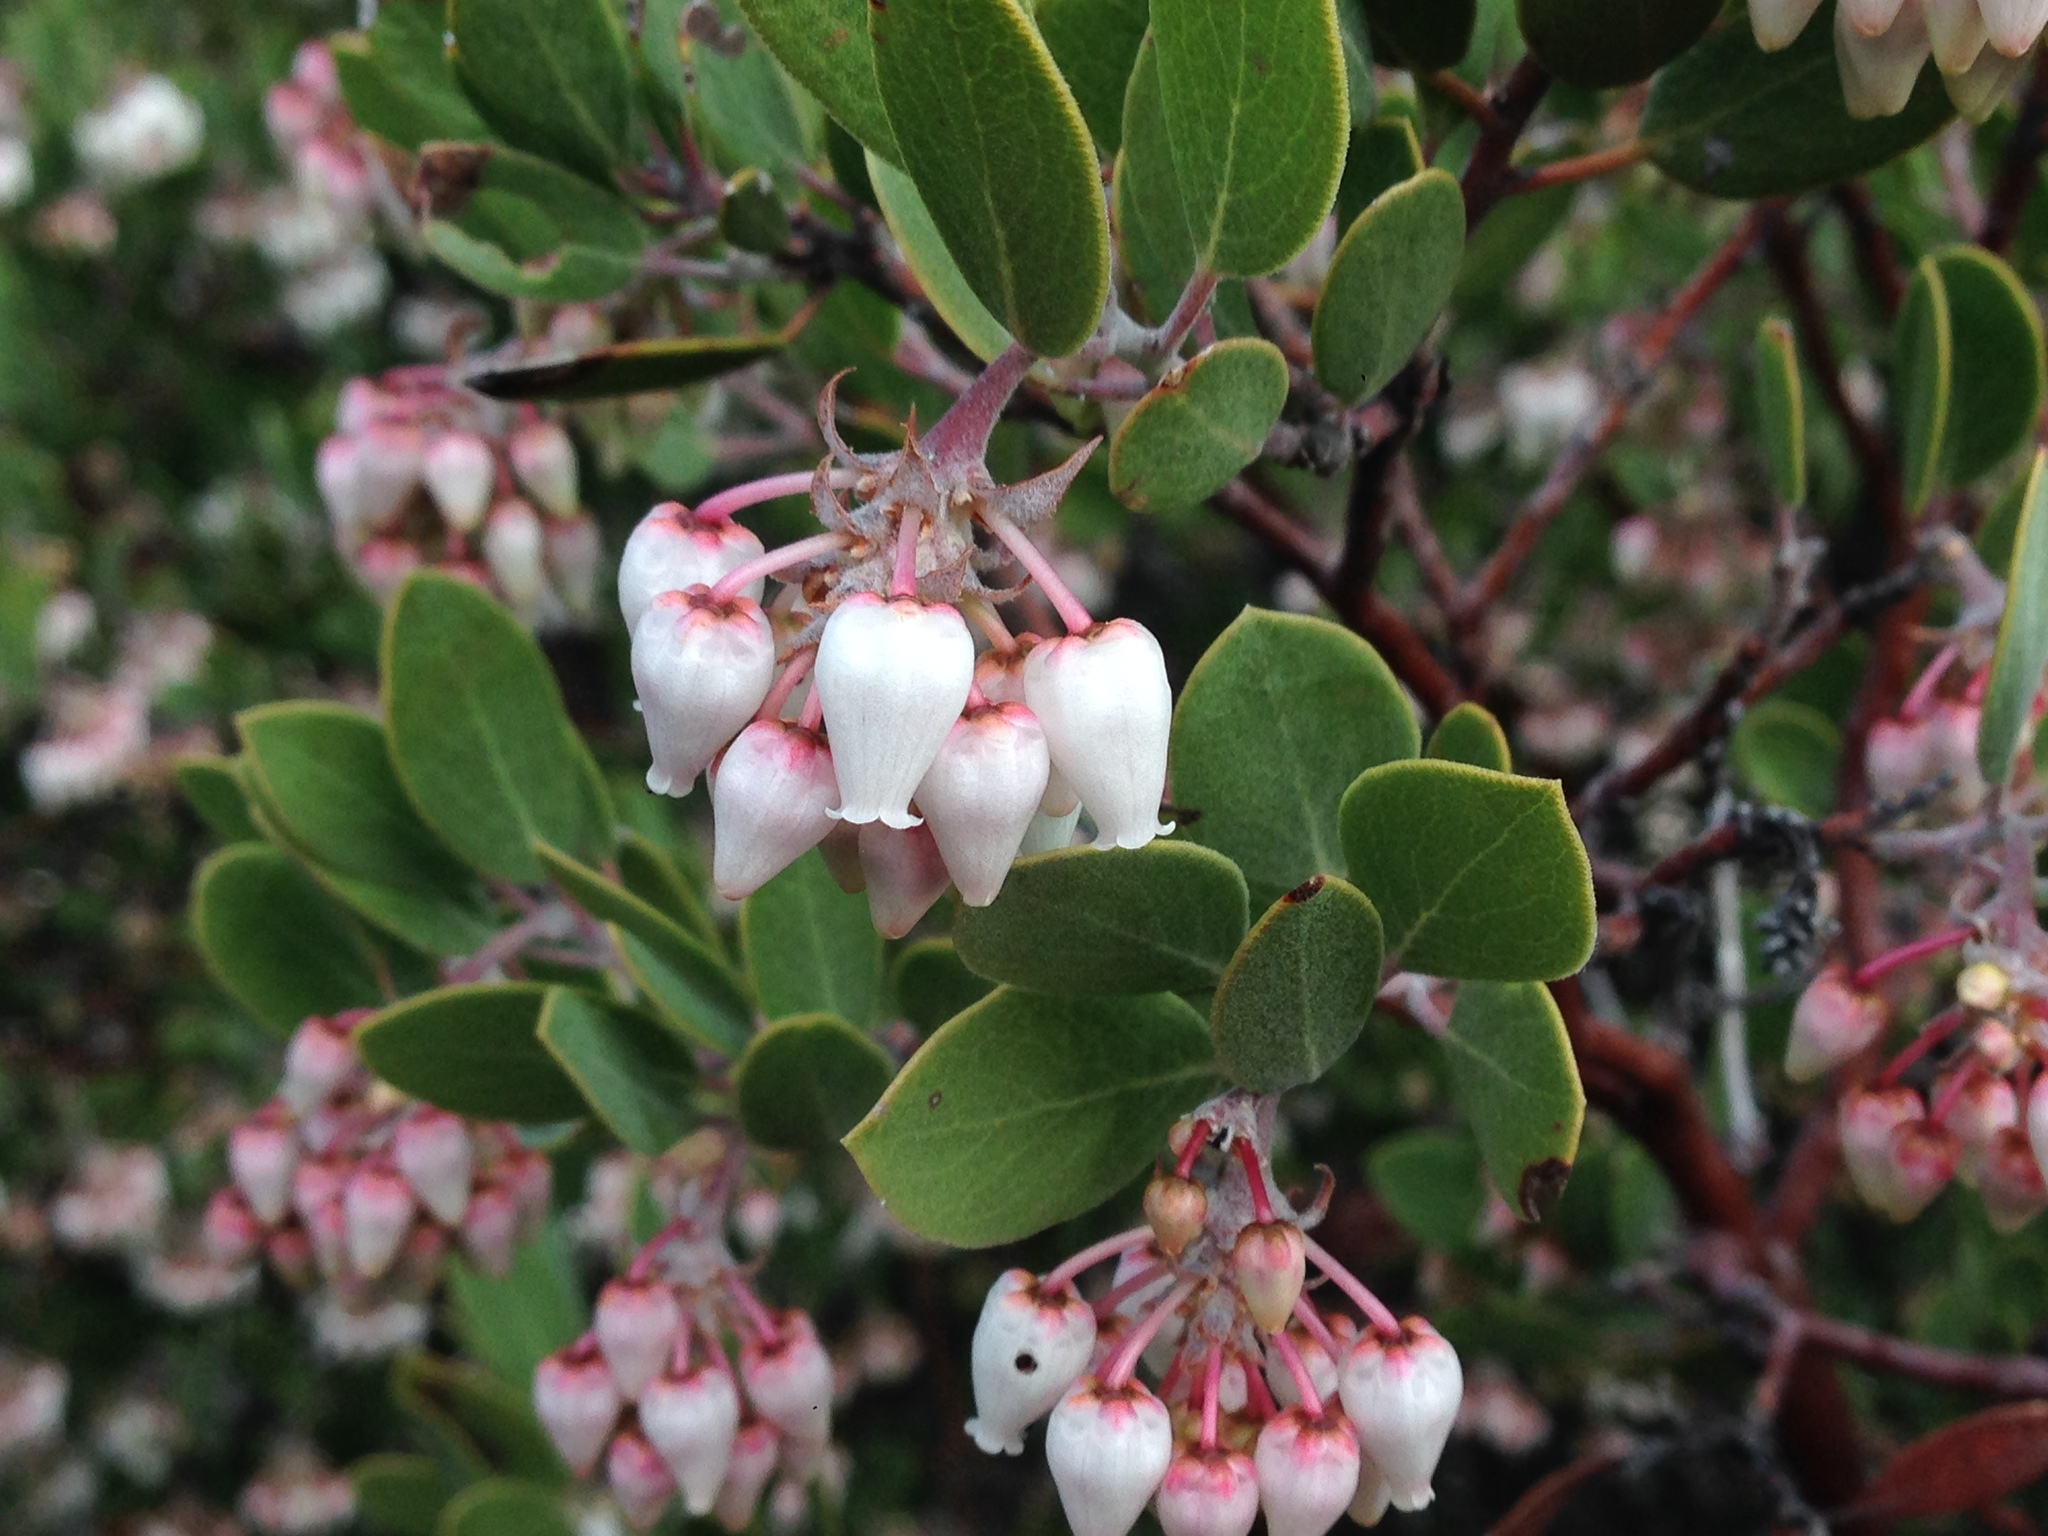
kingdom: Plantae
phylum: Tracheophyta
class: Magnoliopsida
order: Ericales
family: Ericaceae
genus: Arctostaphylos
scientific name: Arctostaphylos pungens
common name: Mexican manzanita
